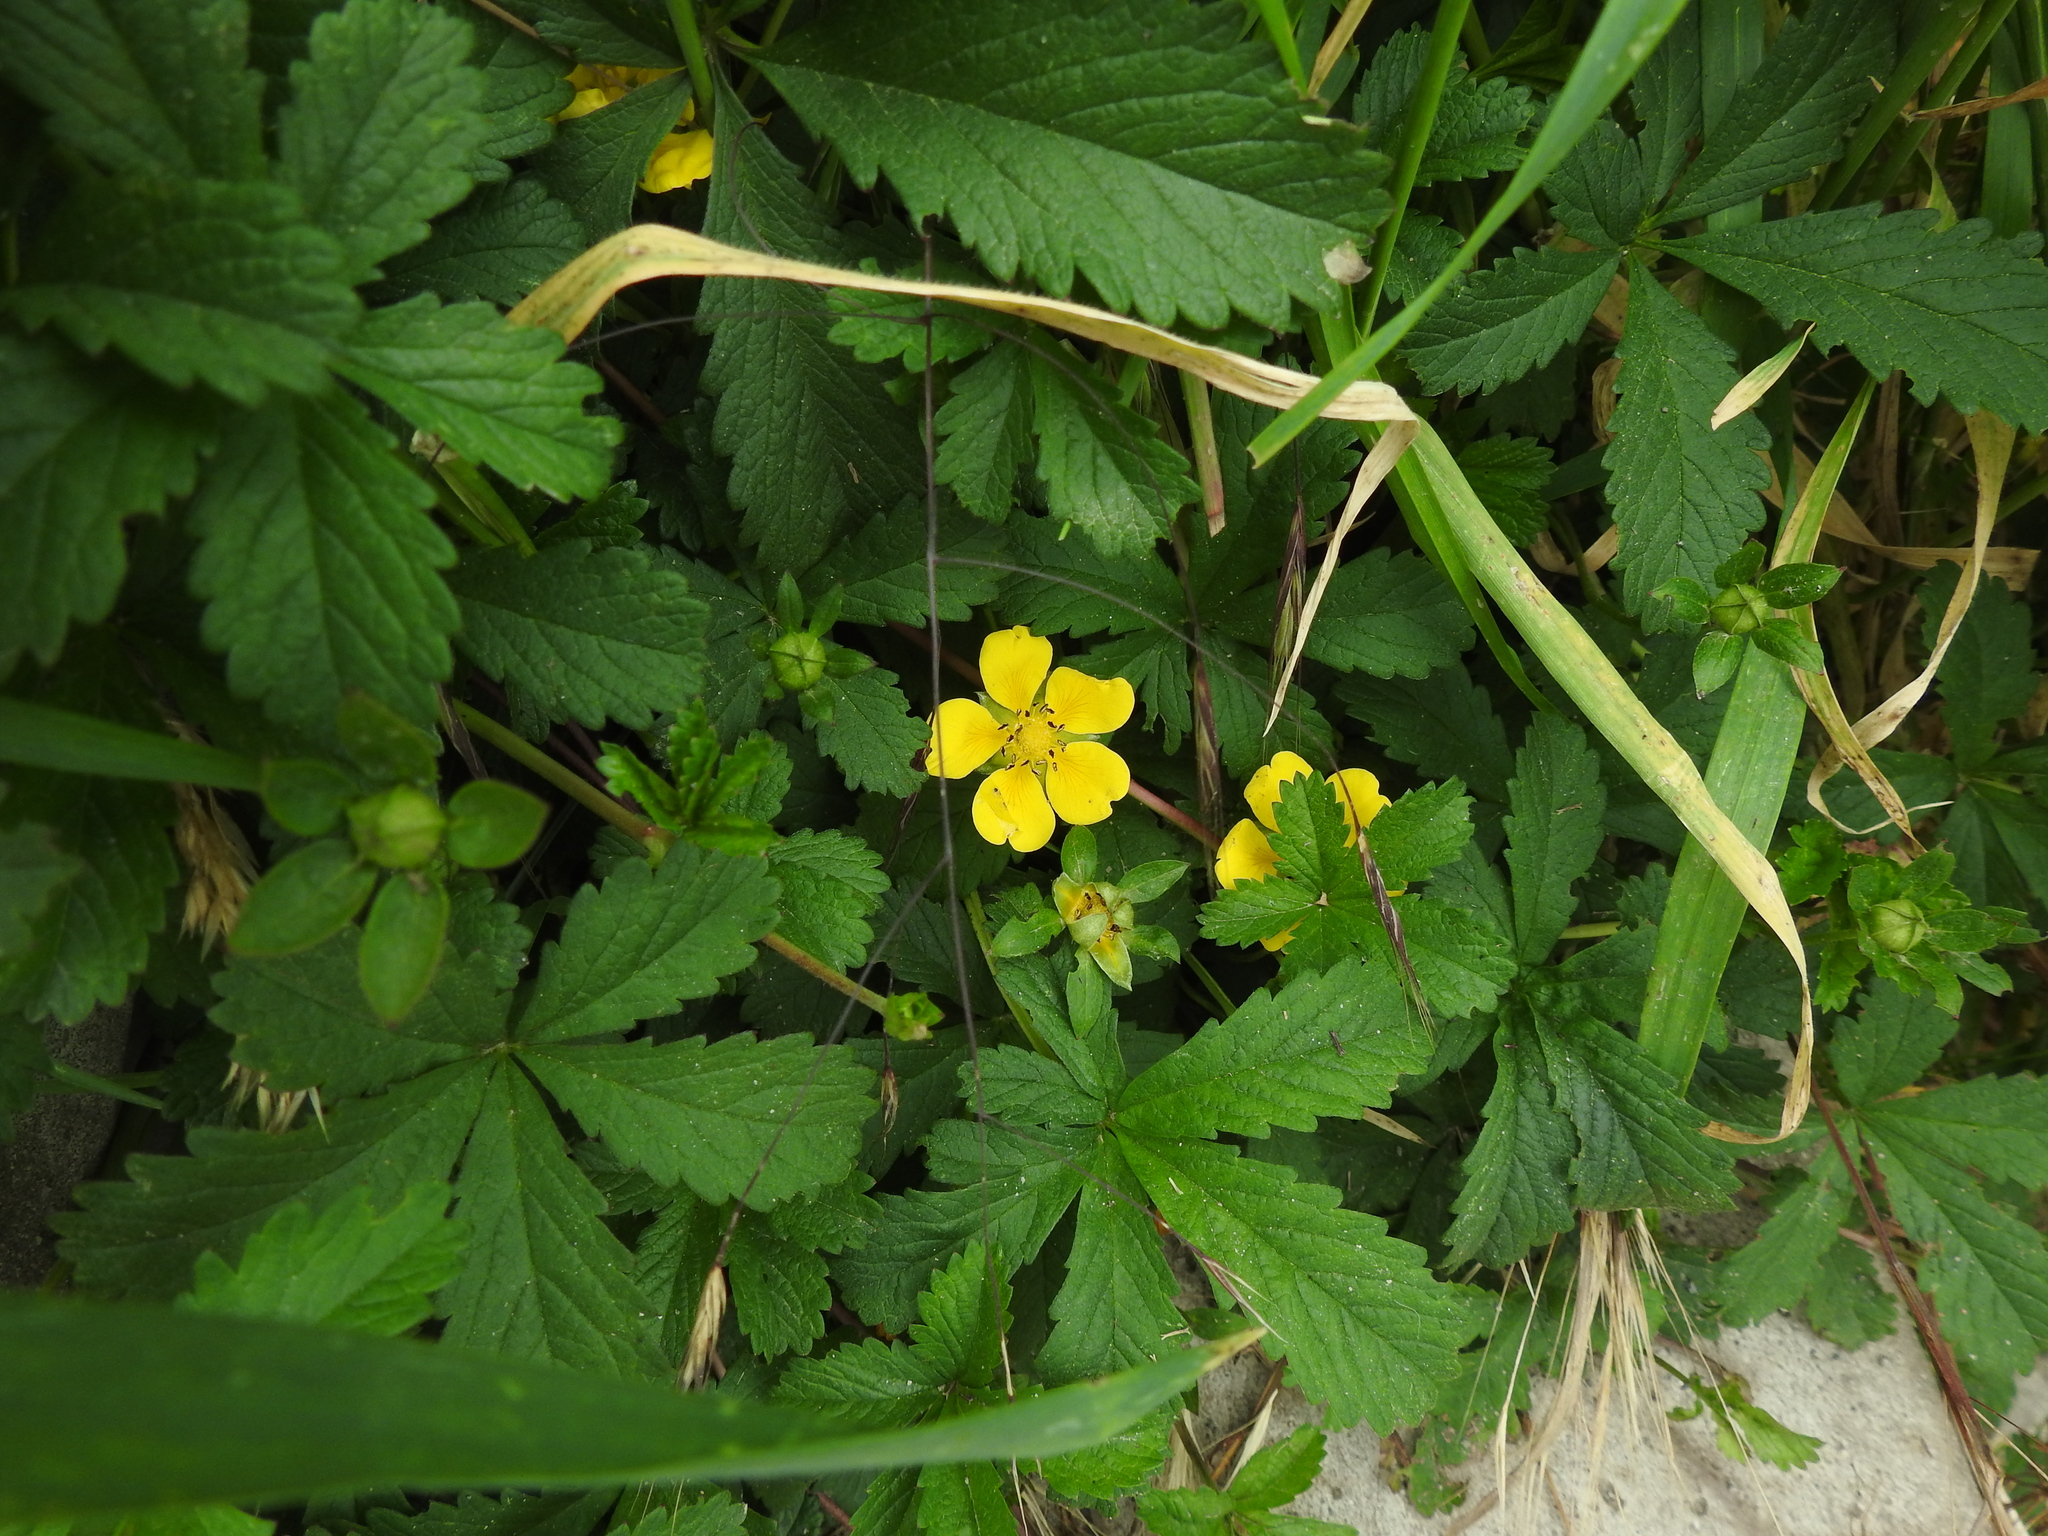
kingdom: Plantae
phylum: Tracheophyta
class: Magnoliopsida
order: Rosales
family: Rosaceae
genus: Potentilla
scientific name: Potentilla reptans
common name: Creeping cinquefoil
